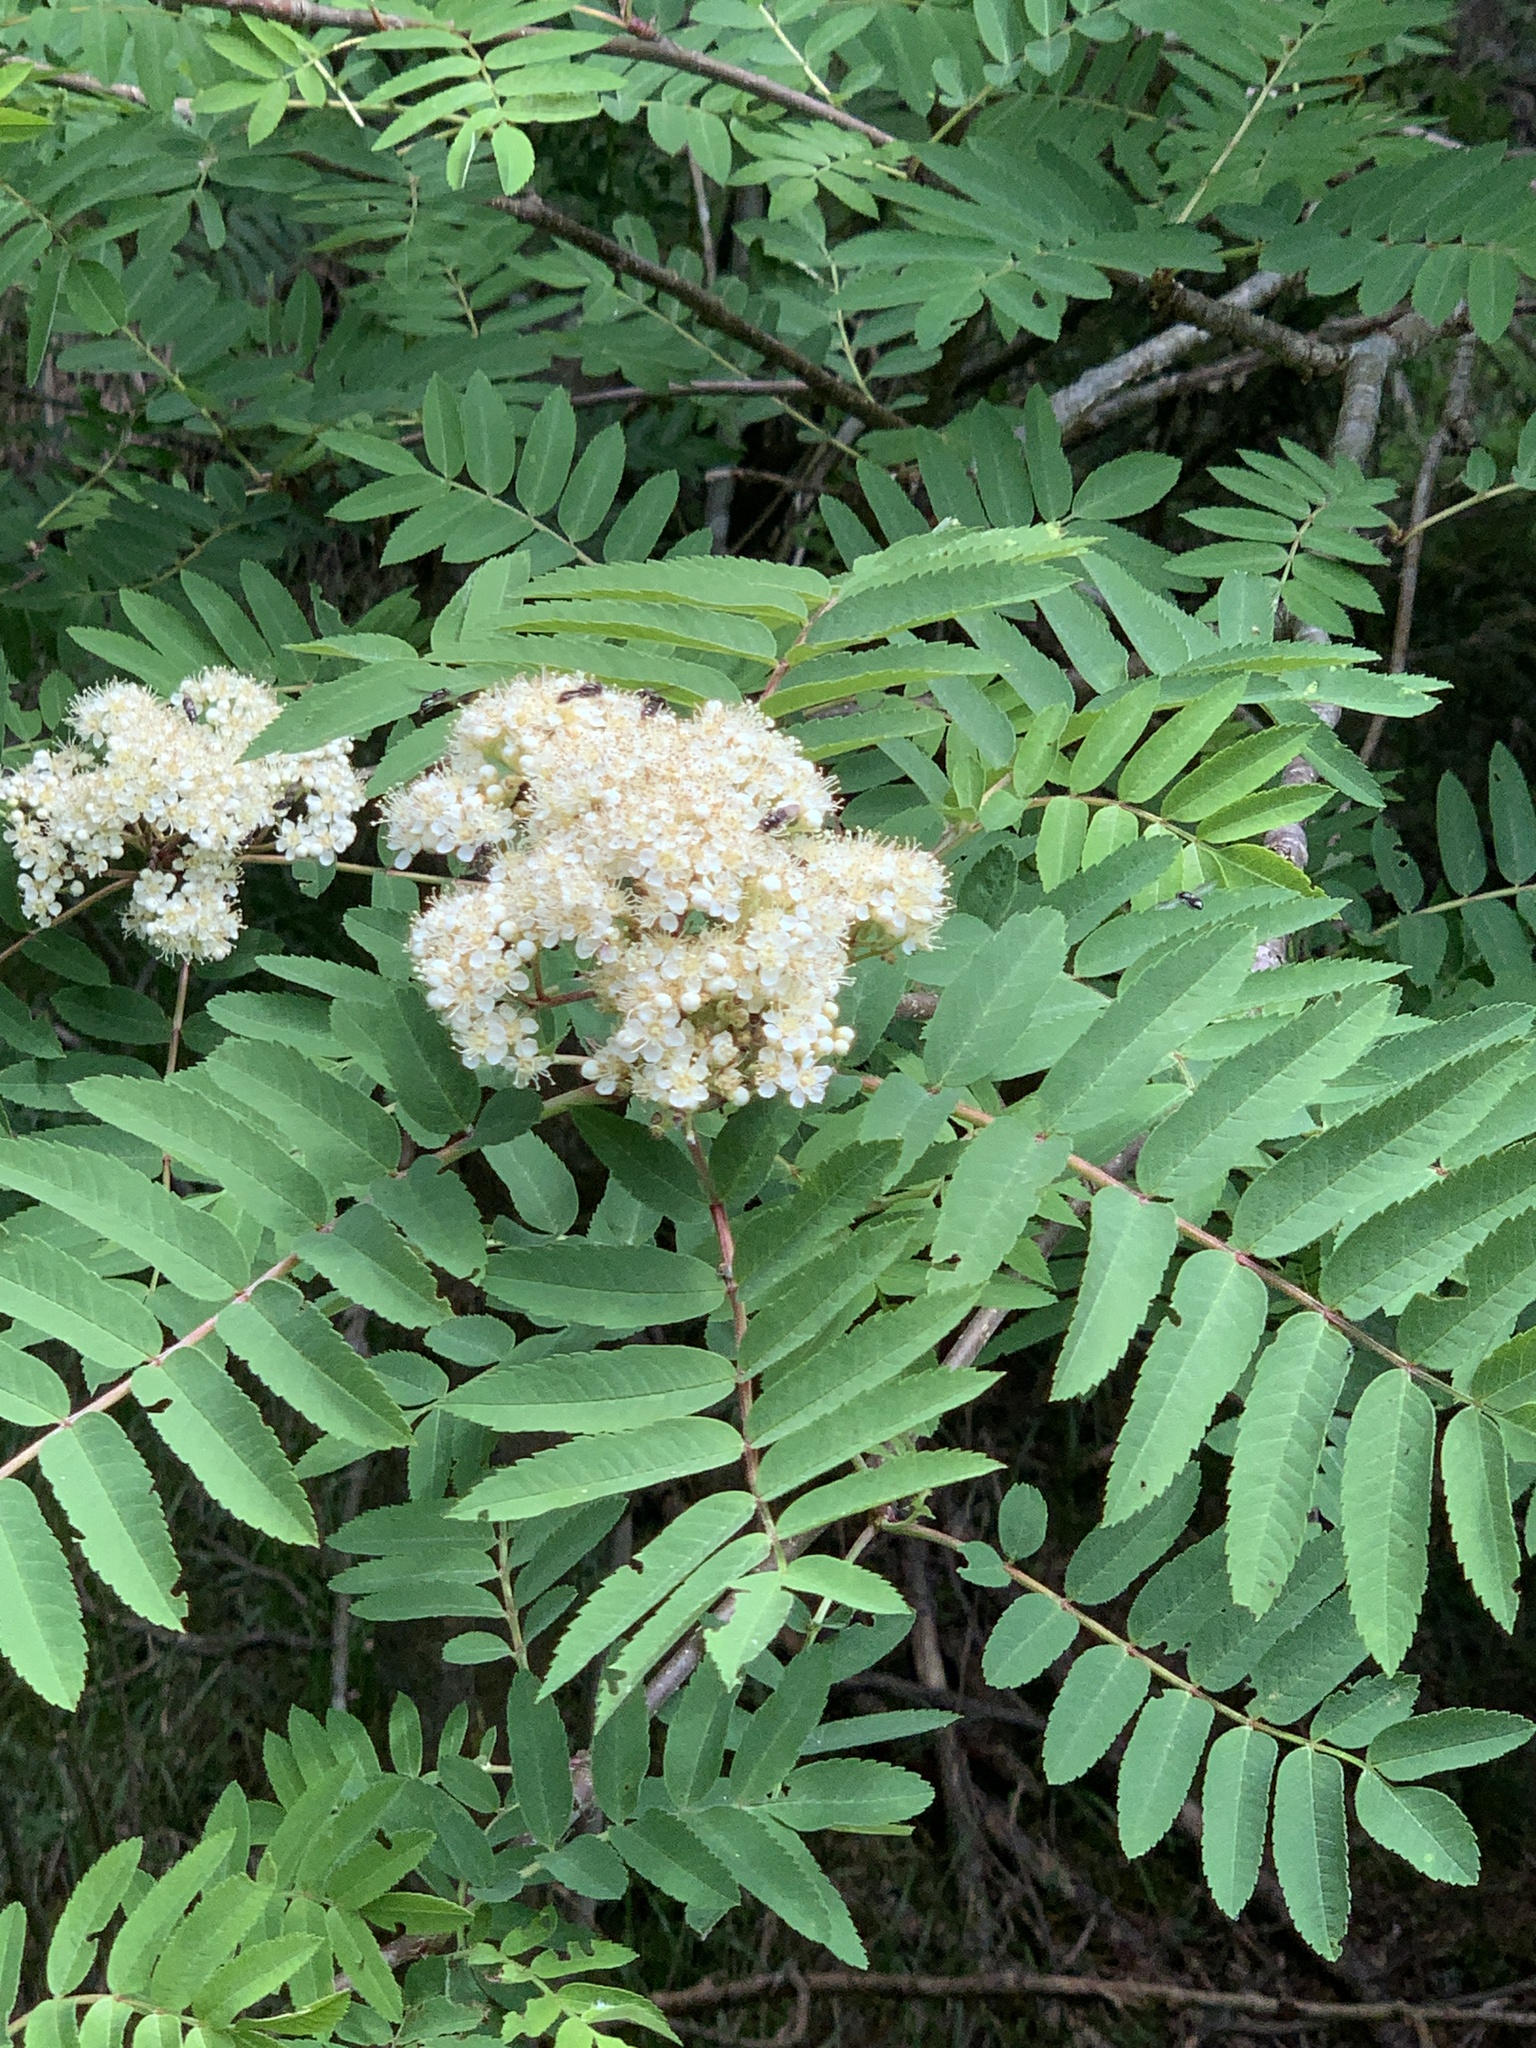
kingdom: Plantae
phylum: Tracheophyta
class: Magnoliopsida
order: Rosales
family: Rosaceae
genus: Sorbus
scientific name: Sorbus aucuparia
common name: Rowan
